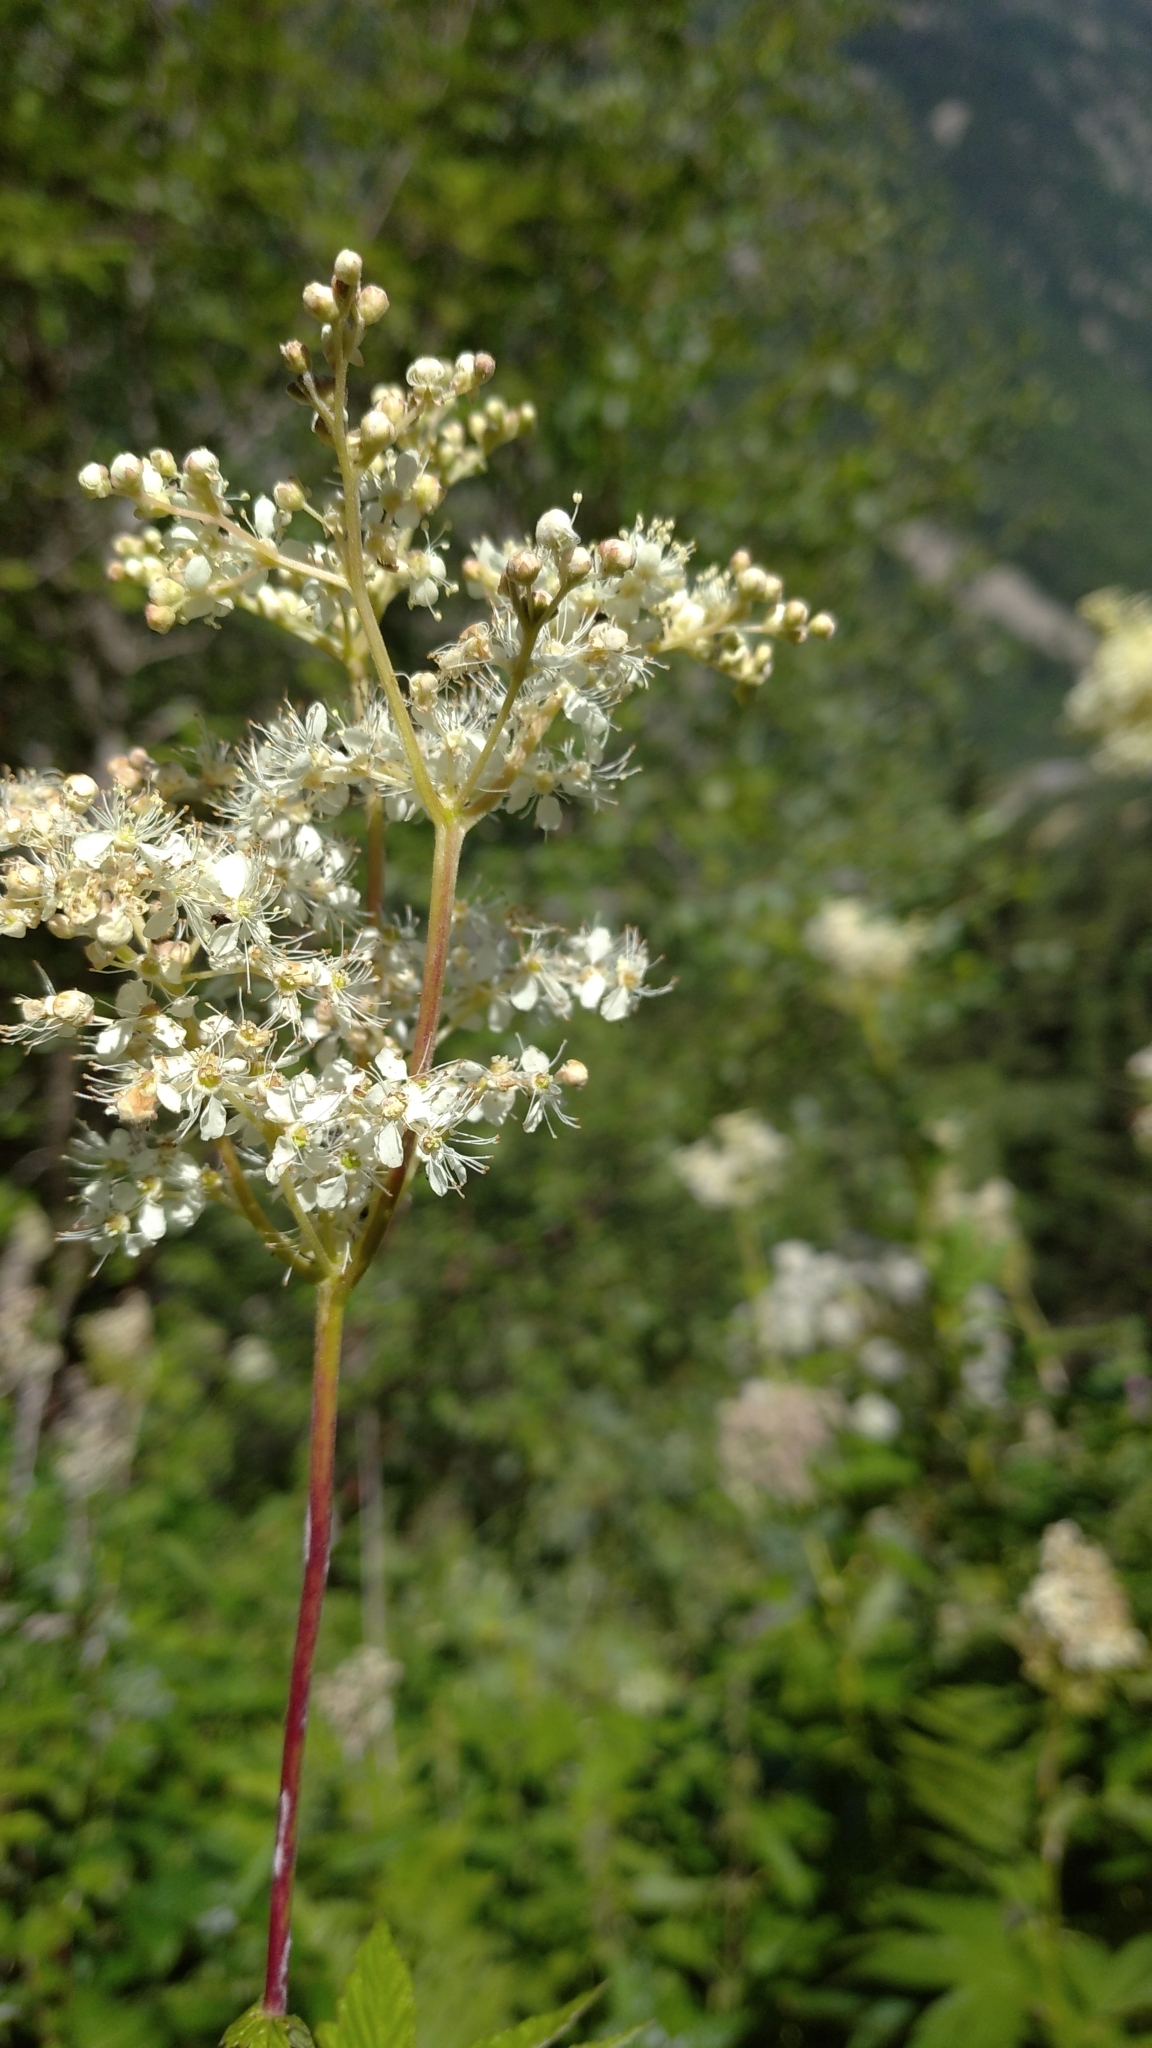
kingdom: Plantae
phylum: Tracheophyta
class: Magnoliopsida
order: Rosales
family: Rosaceae
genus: Filipendula
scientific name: Filipendula ulmaria
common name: Meadowsweet
